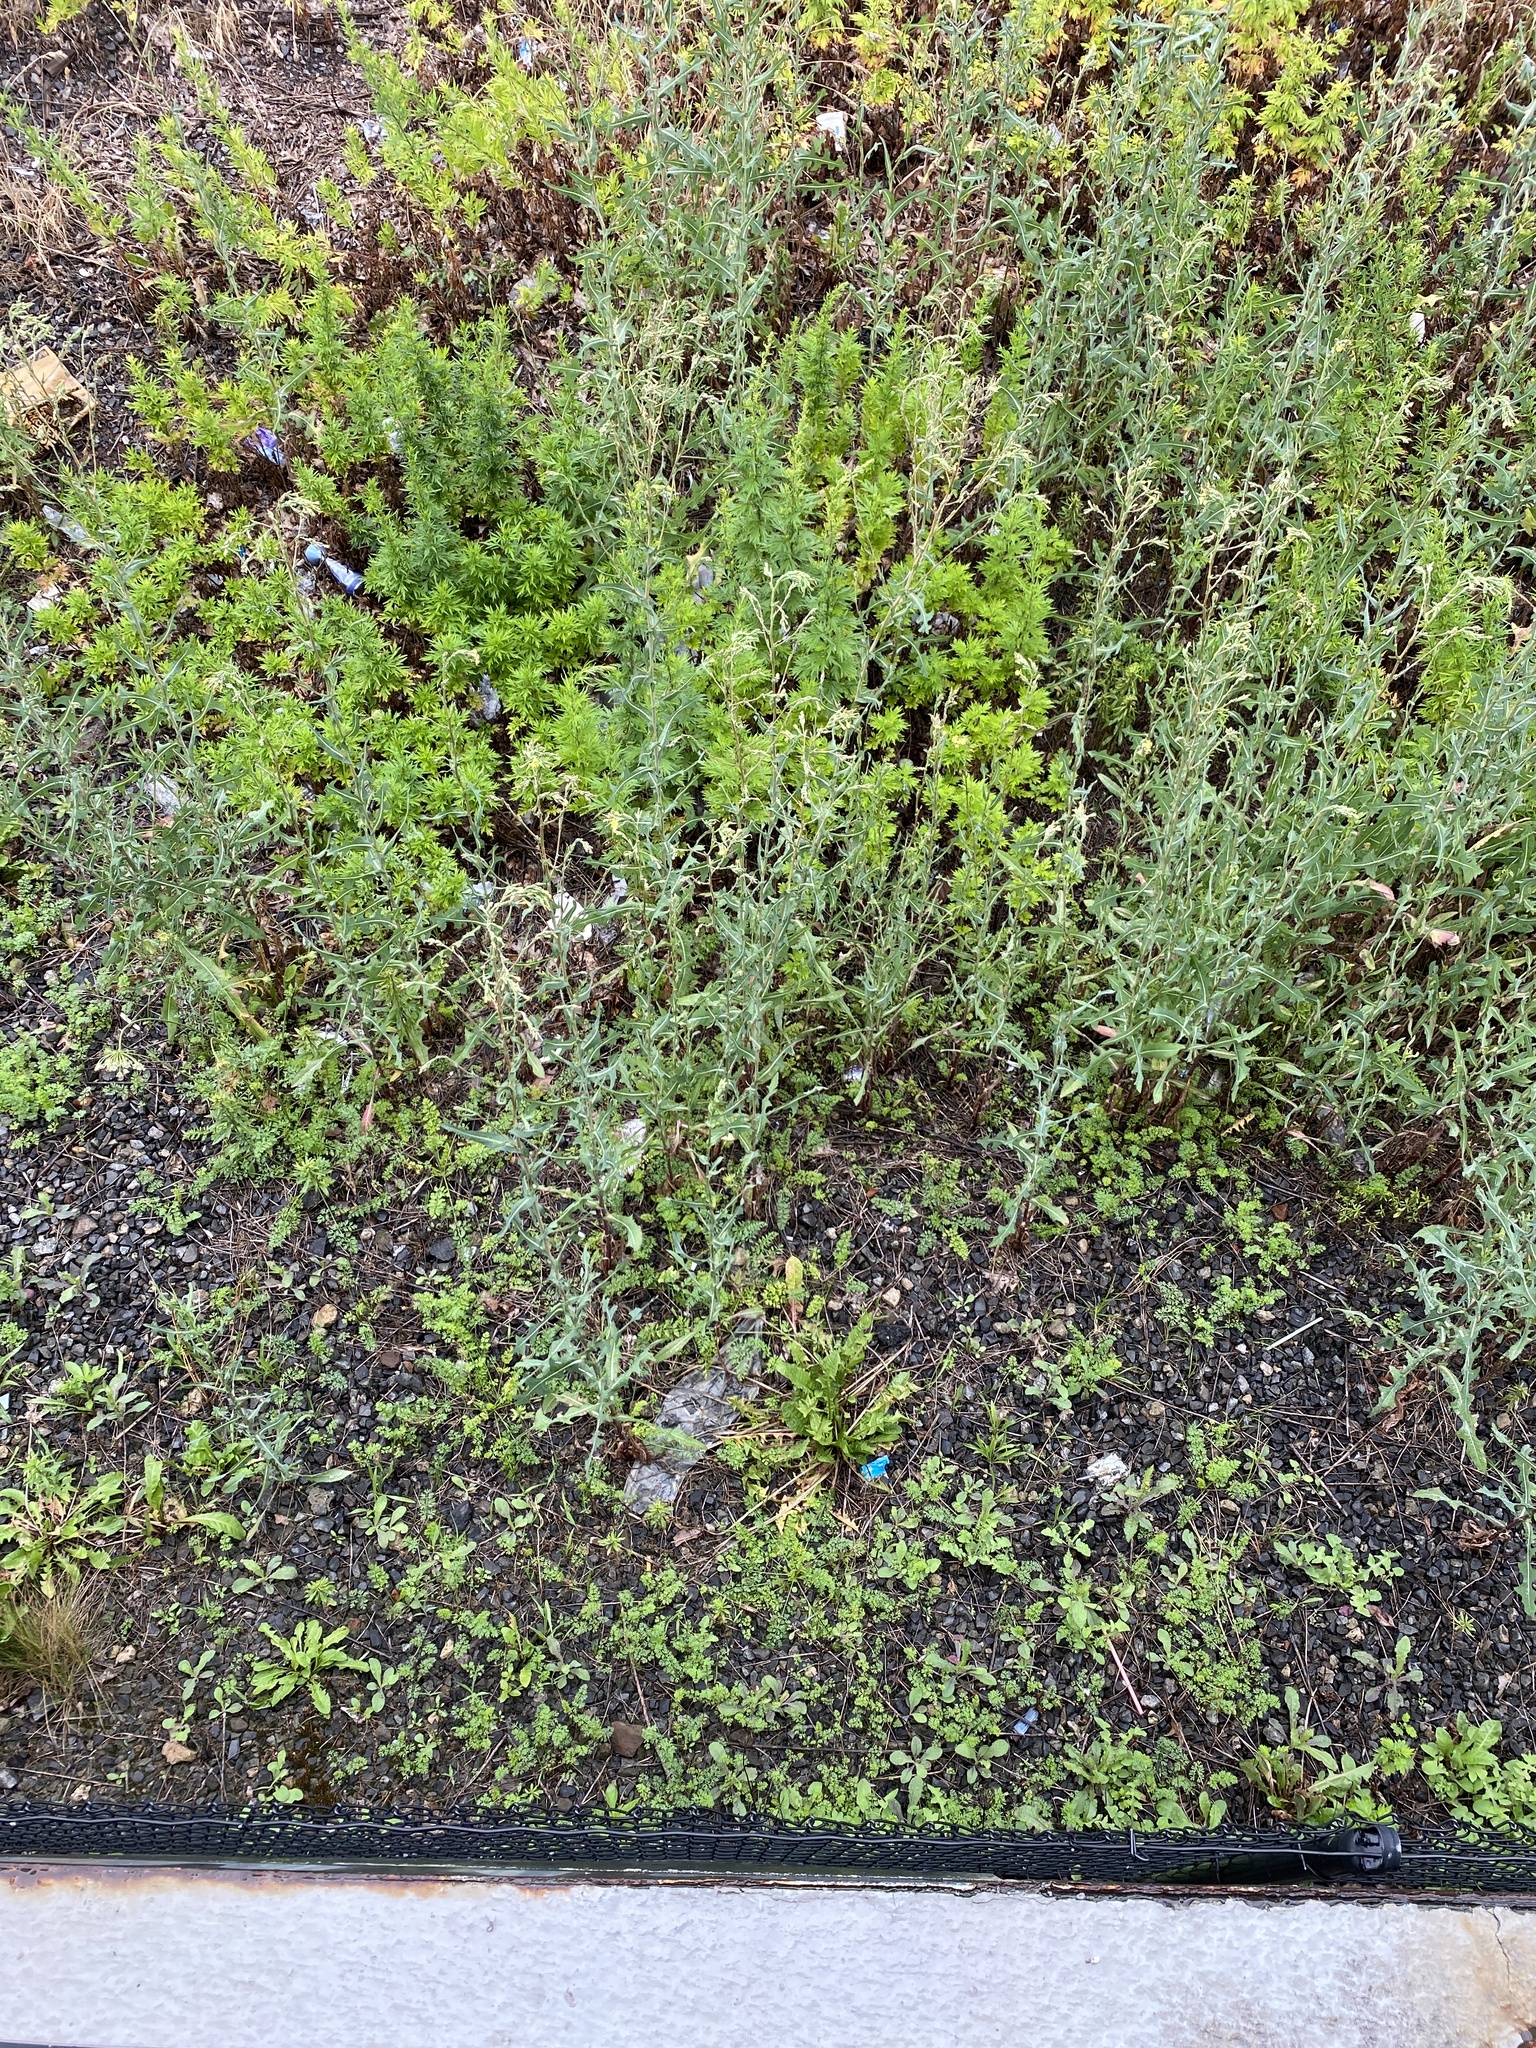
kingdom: Plantae
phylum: Tracheophyta
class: Magnoliopsida
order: Asterales
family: Asteraceae
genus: Lactuca
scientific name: Lactuca serriola
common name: Prickly lettuce
